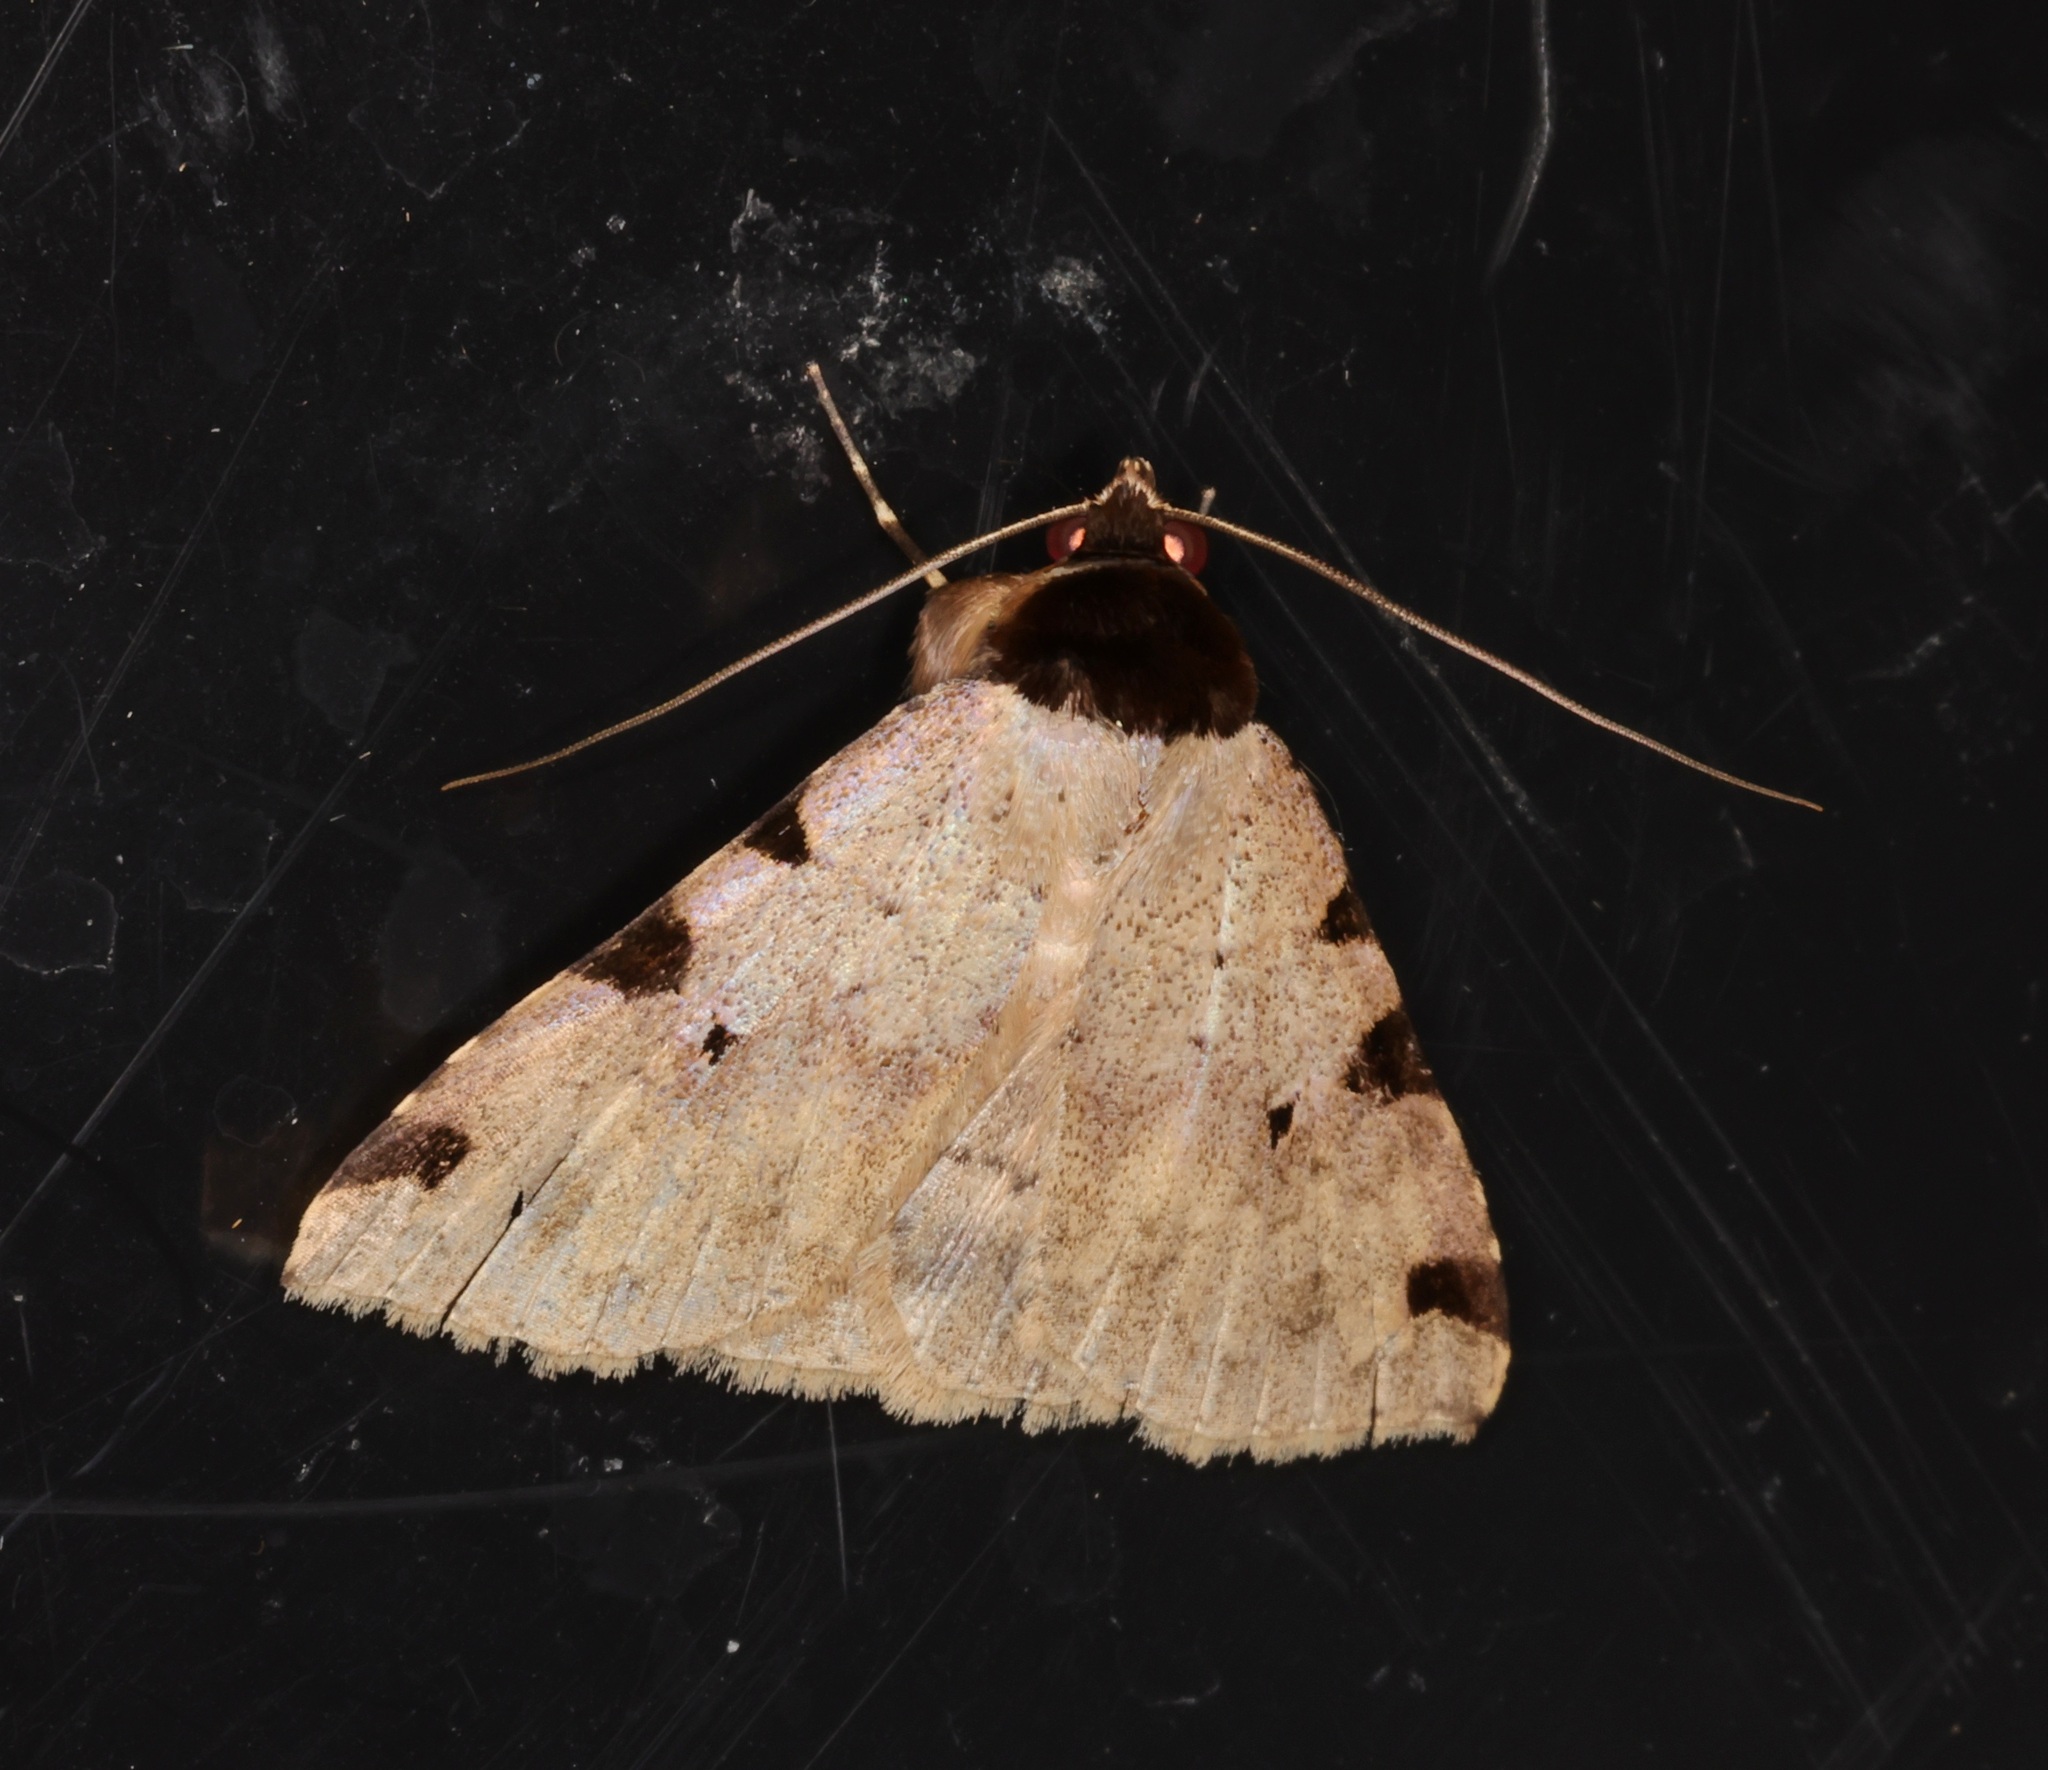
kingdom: Animalia
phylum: Arthropoda
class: Insecta
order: Lepidoptera
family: Erebidae
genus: Rema
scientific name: Rema costimacula
